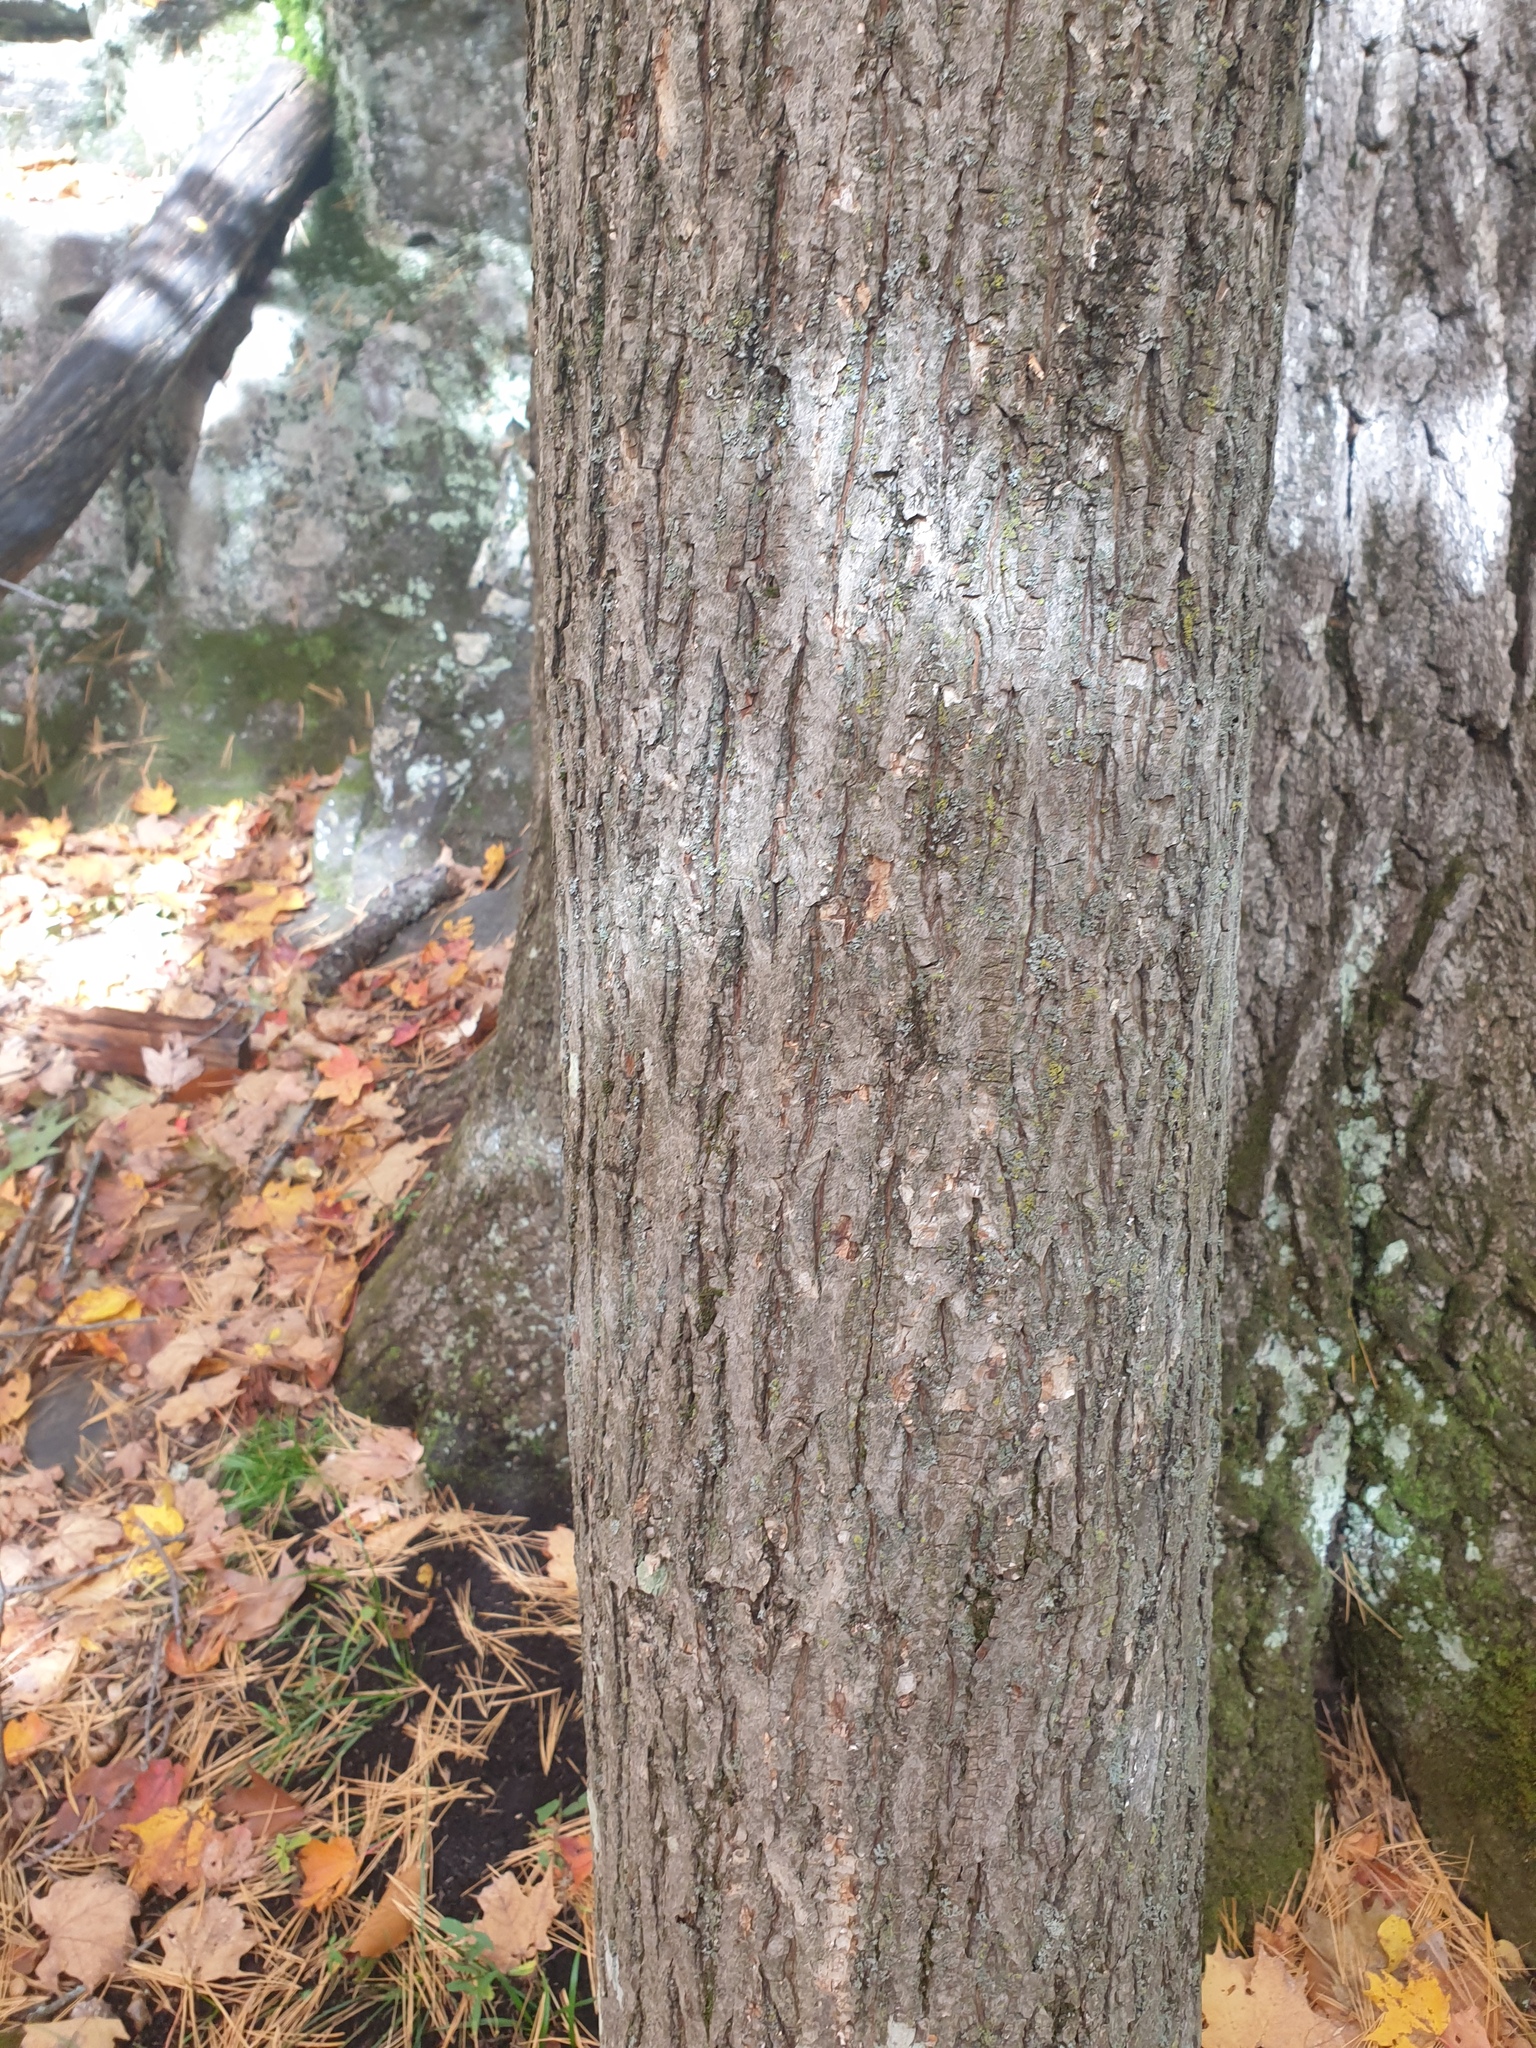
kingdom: Plantae
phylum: Tracheophyta
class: Magnoliopsida
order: Fagales
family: Juglandaceae
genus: Carya
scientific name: Carya cordiformis
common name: Bitternut hickory
